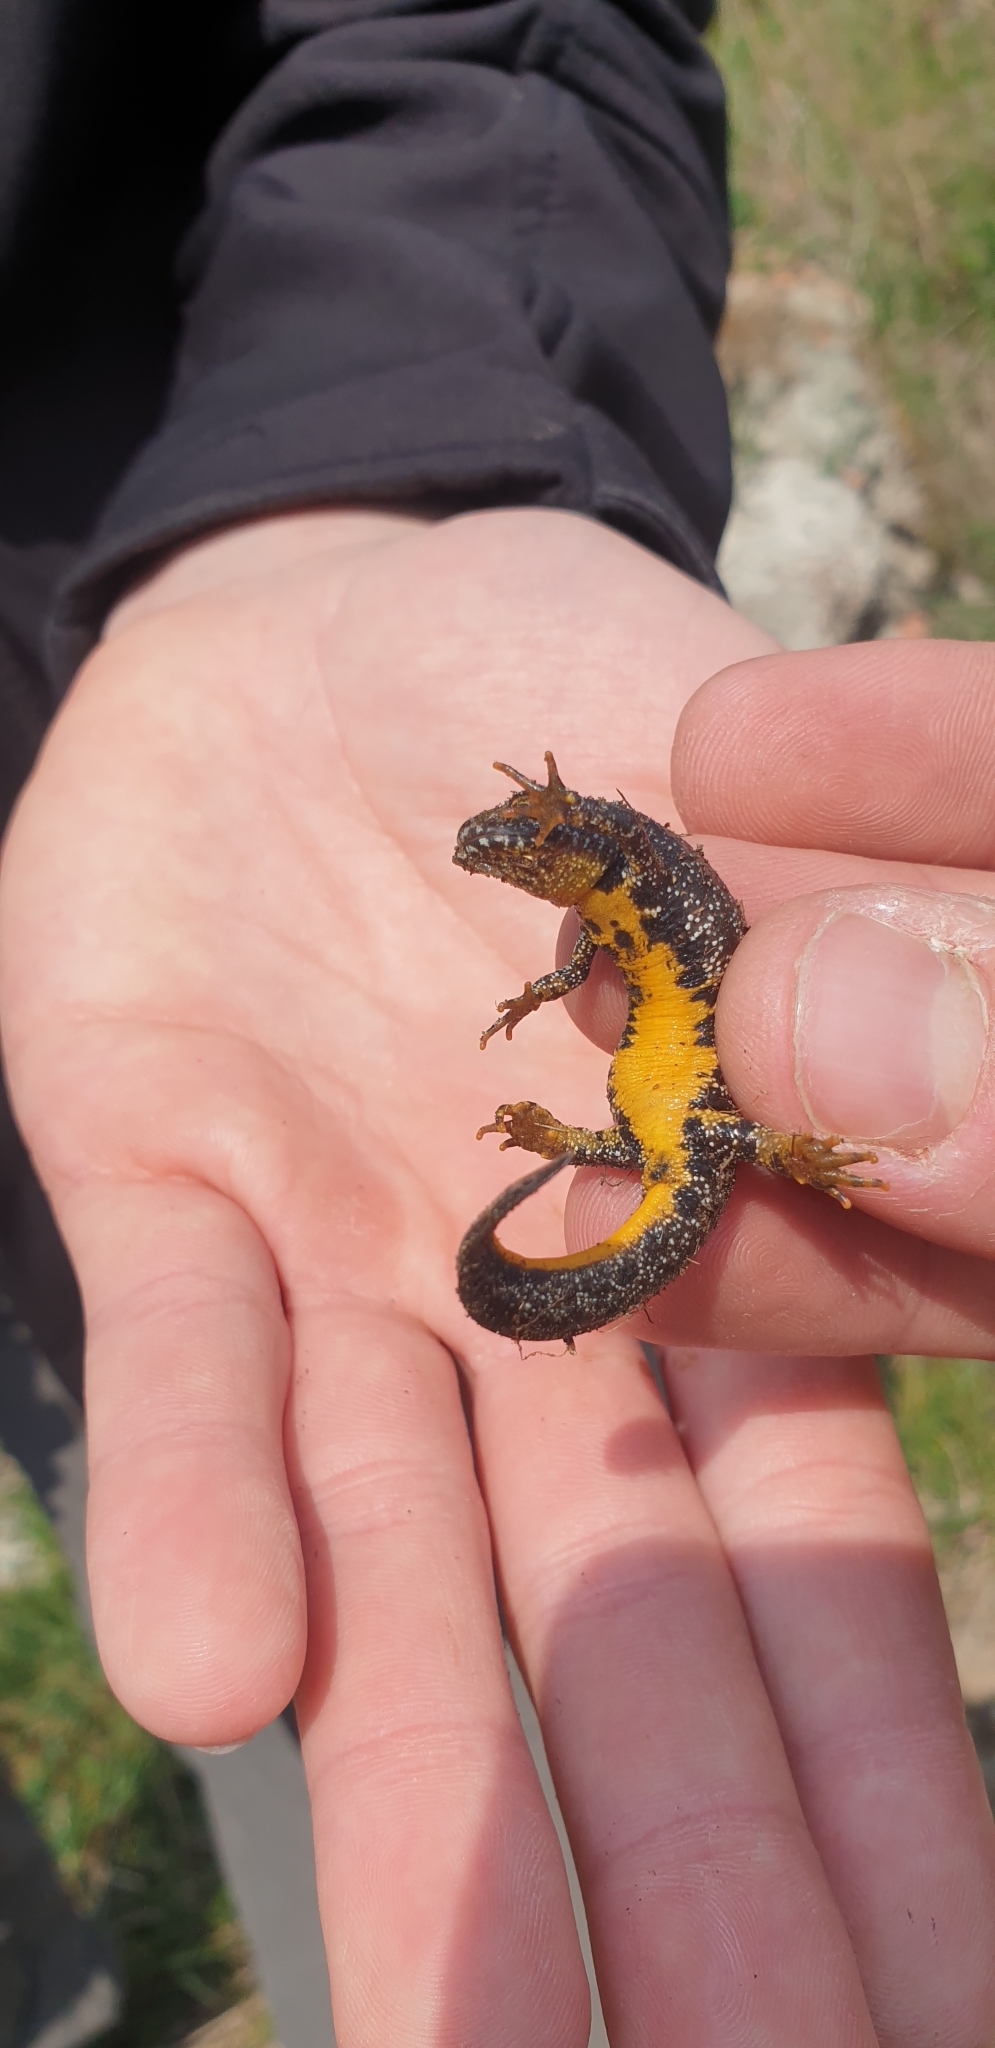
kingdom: Animalia
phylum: Chordata
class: Amphibia
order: Caudata
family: Salamandridae
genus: Triturus
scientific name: Triturus cristatus
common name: Crested newt
